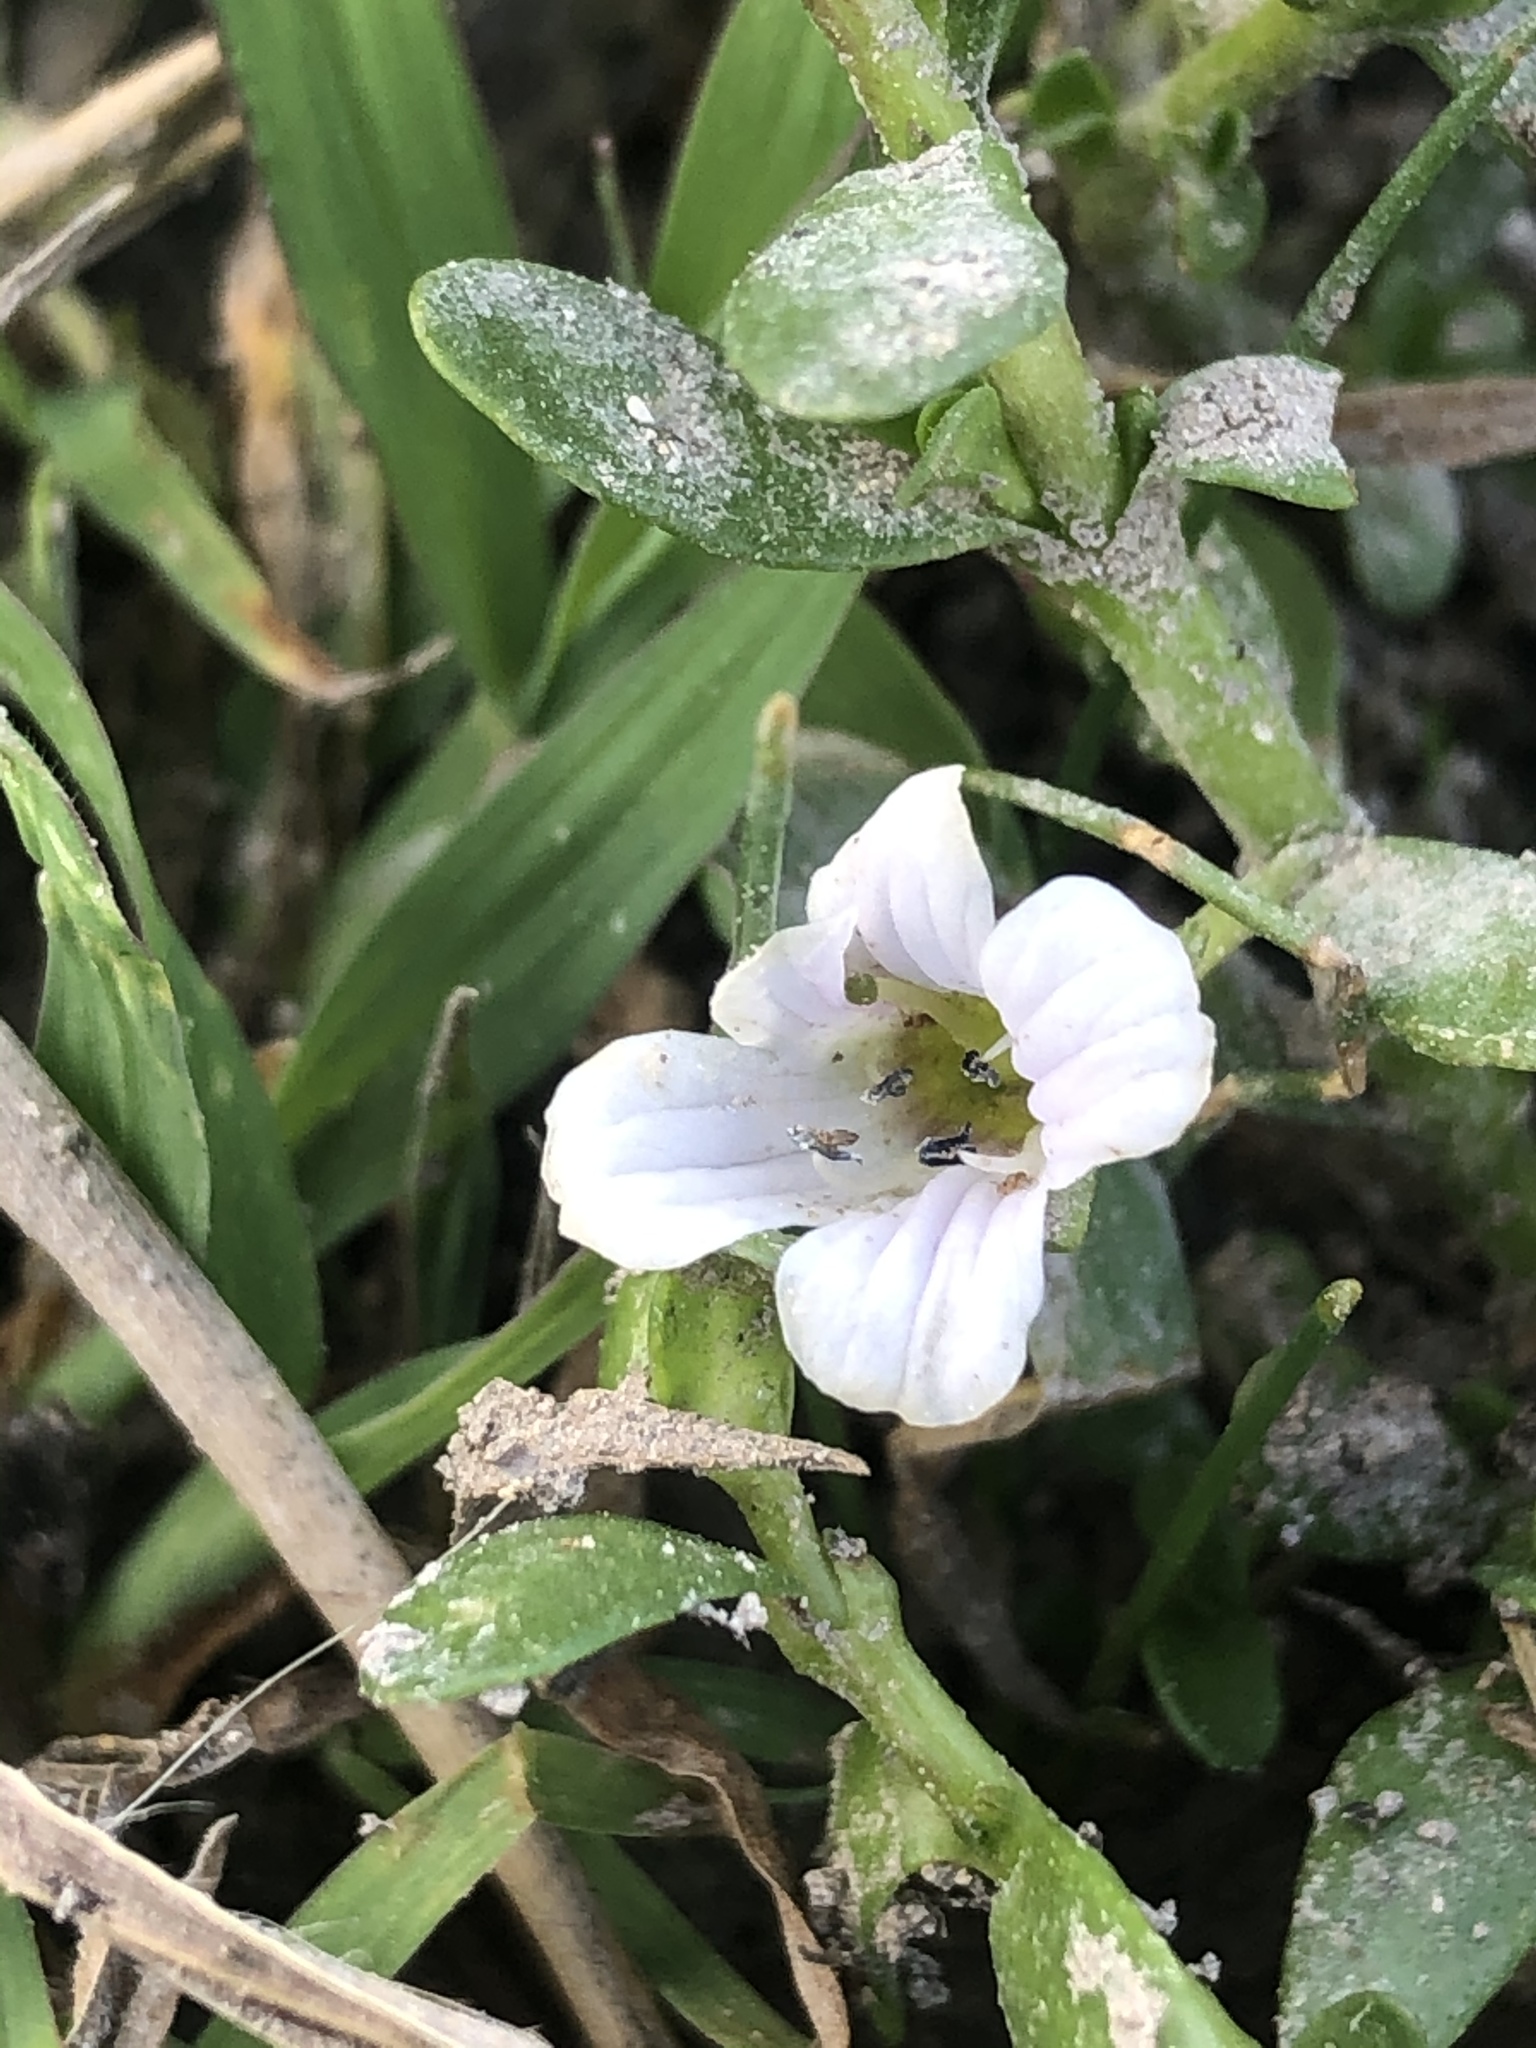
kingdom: Plantae
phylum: Tracheophyta
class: Magnoliopsida
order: Lamiales
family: Plantaginaceae
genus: Bacopa
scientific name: Bacopa monnieri
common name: Indian-pennywort
